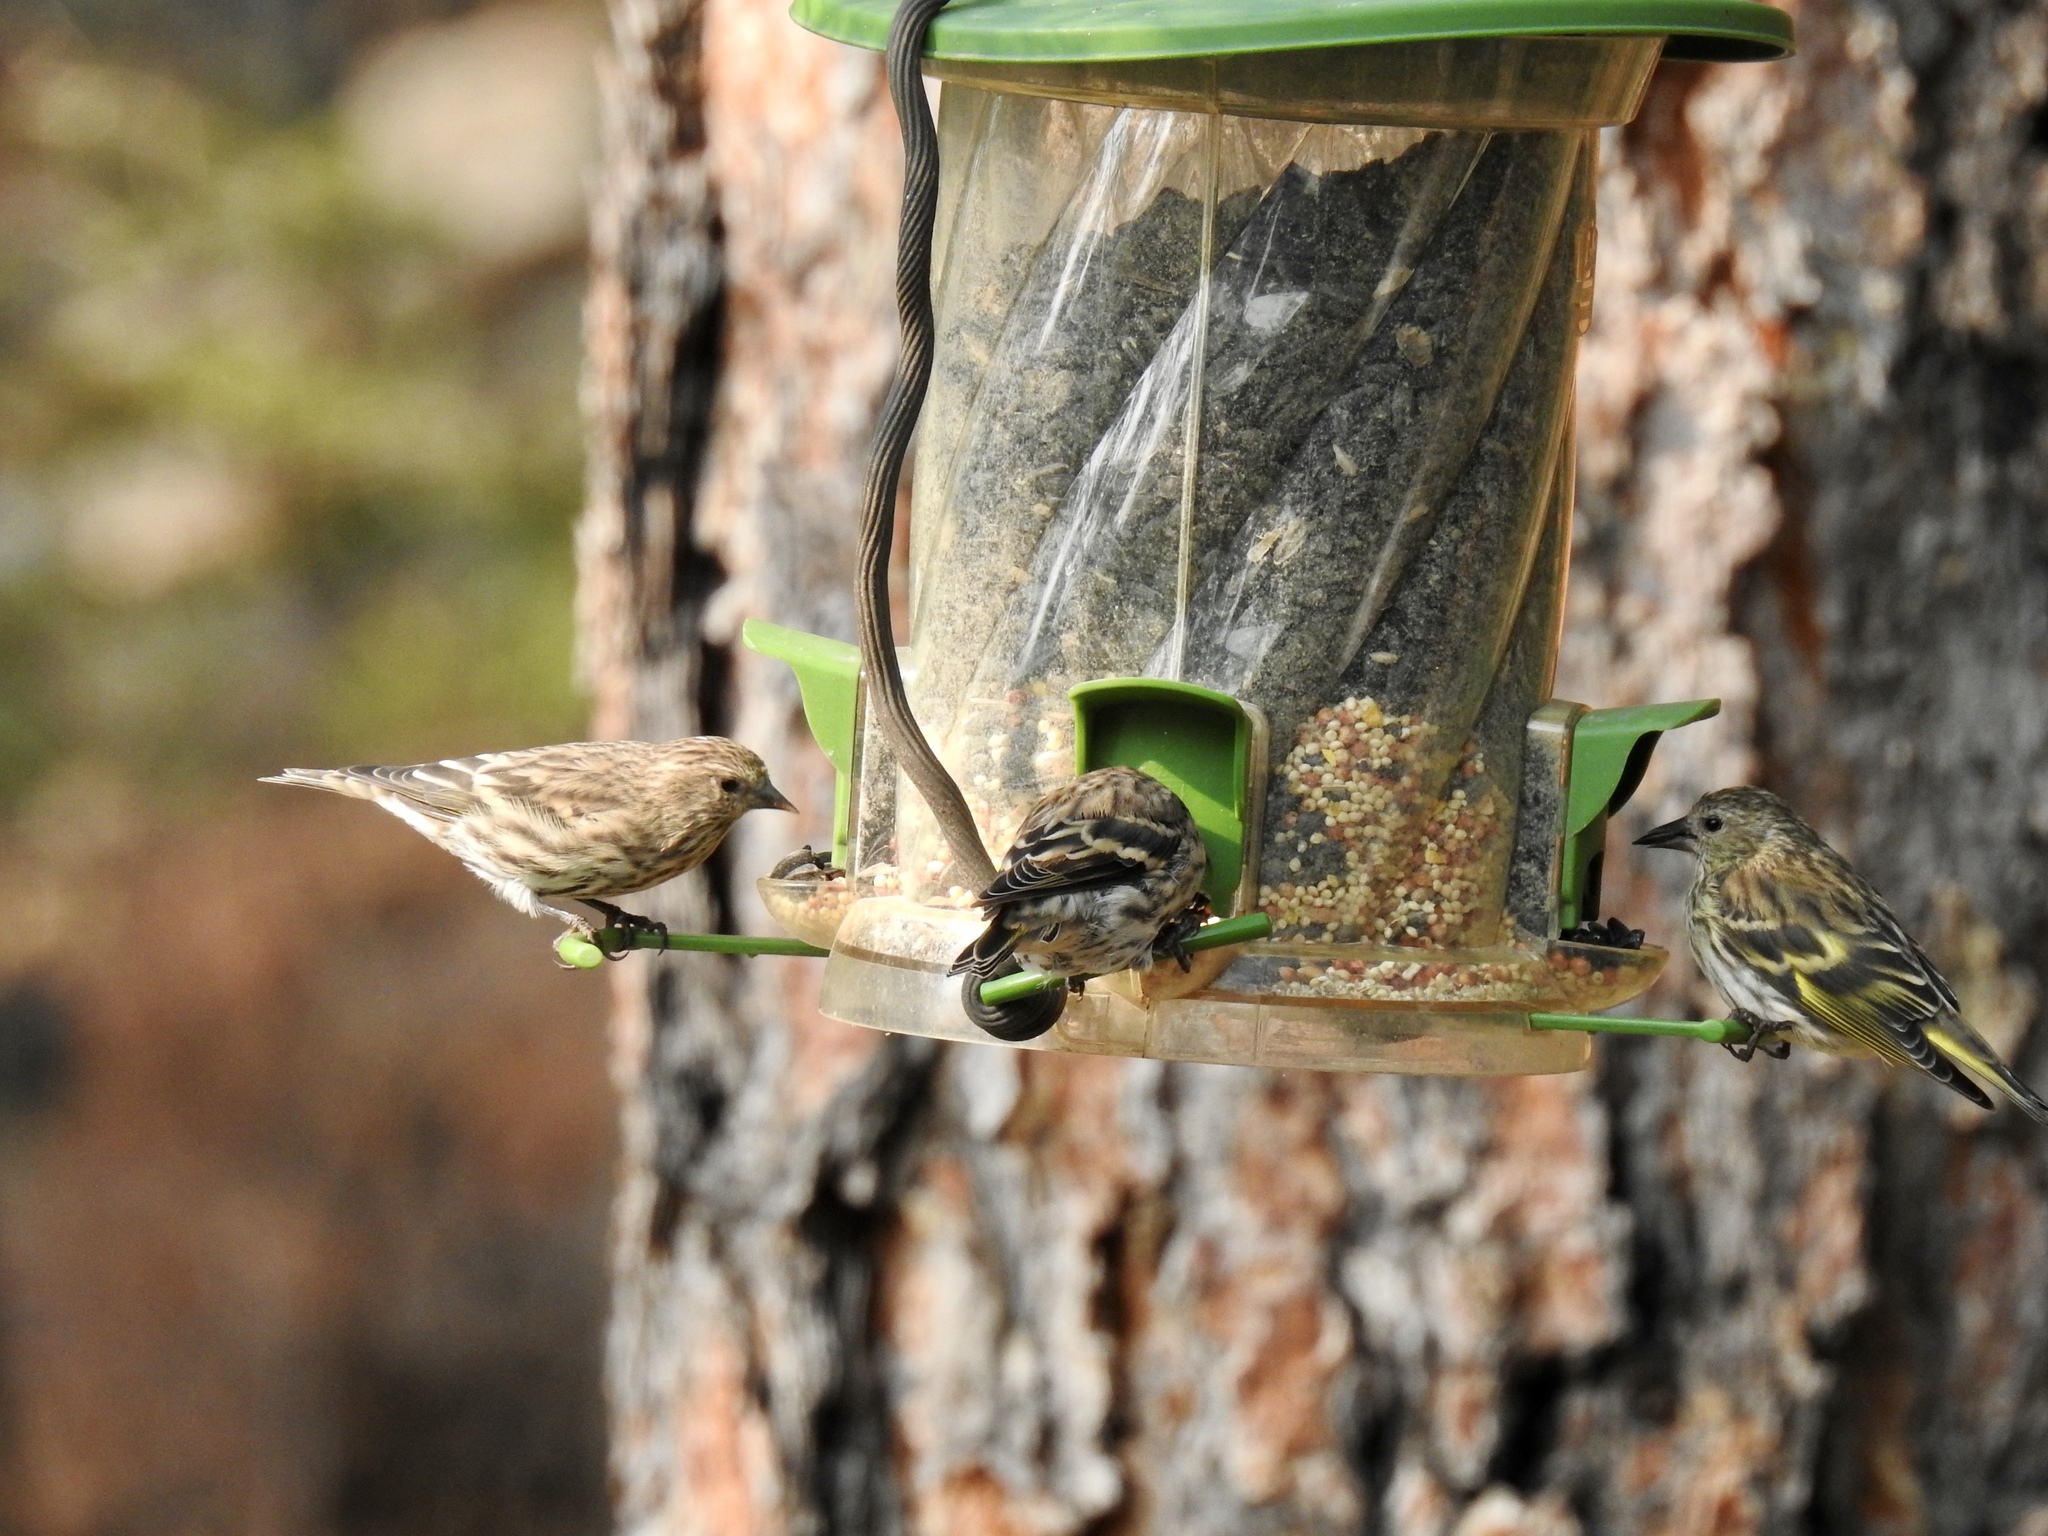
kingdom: Animalia
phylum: Chordata
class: Aves
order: Passeriformes
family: Fringillidae
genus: Spinus
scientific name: Spinus pinus
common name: Pine siskin
